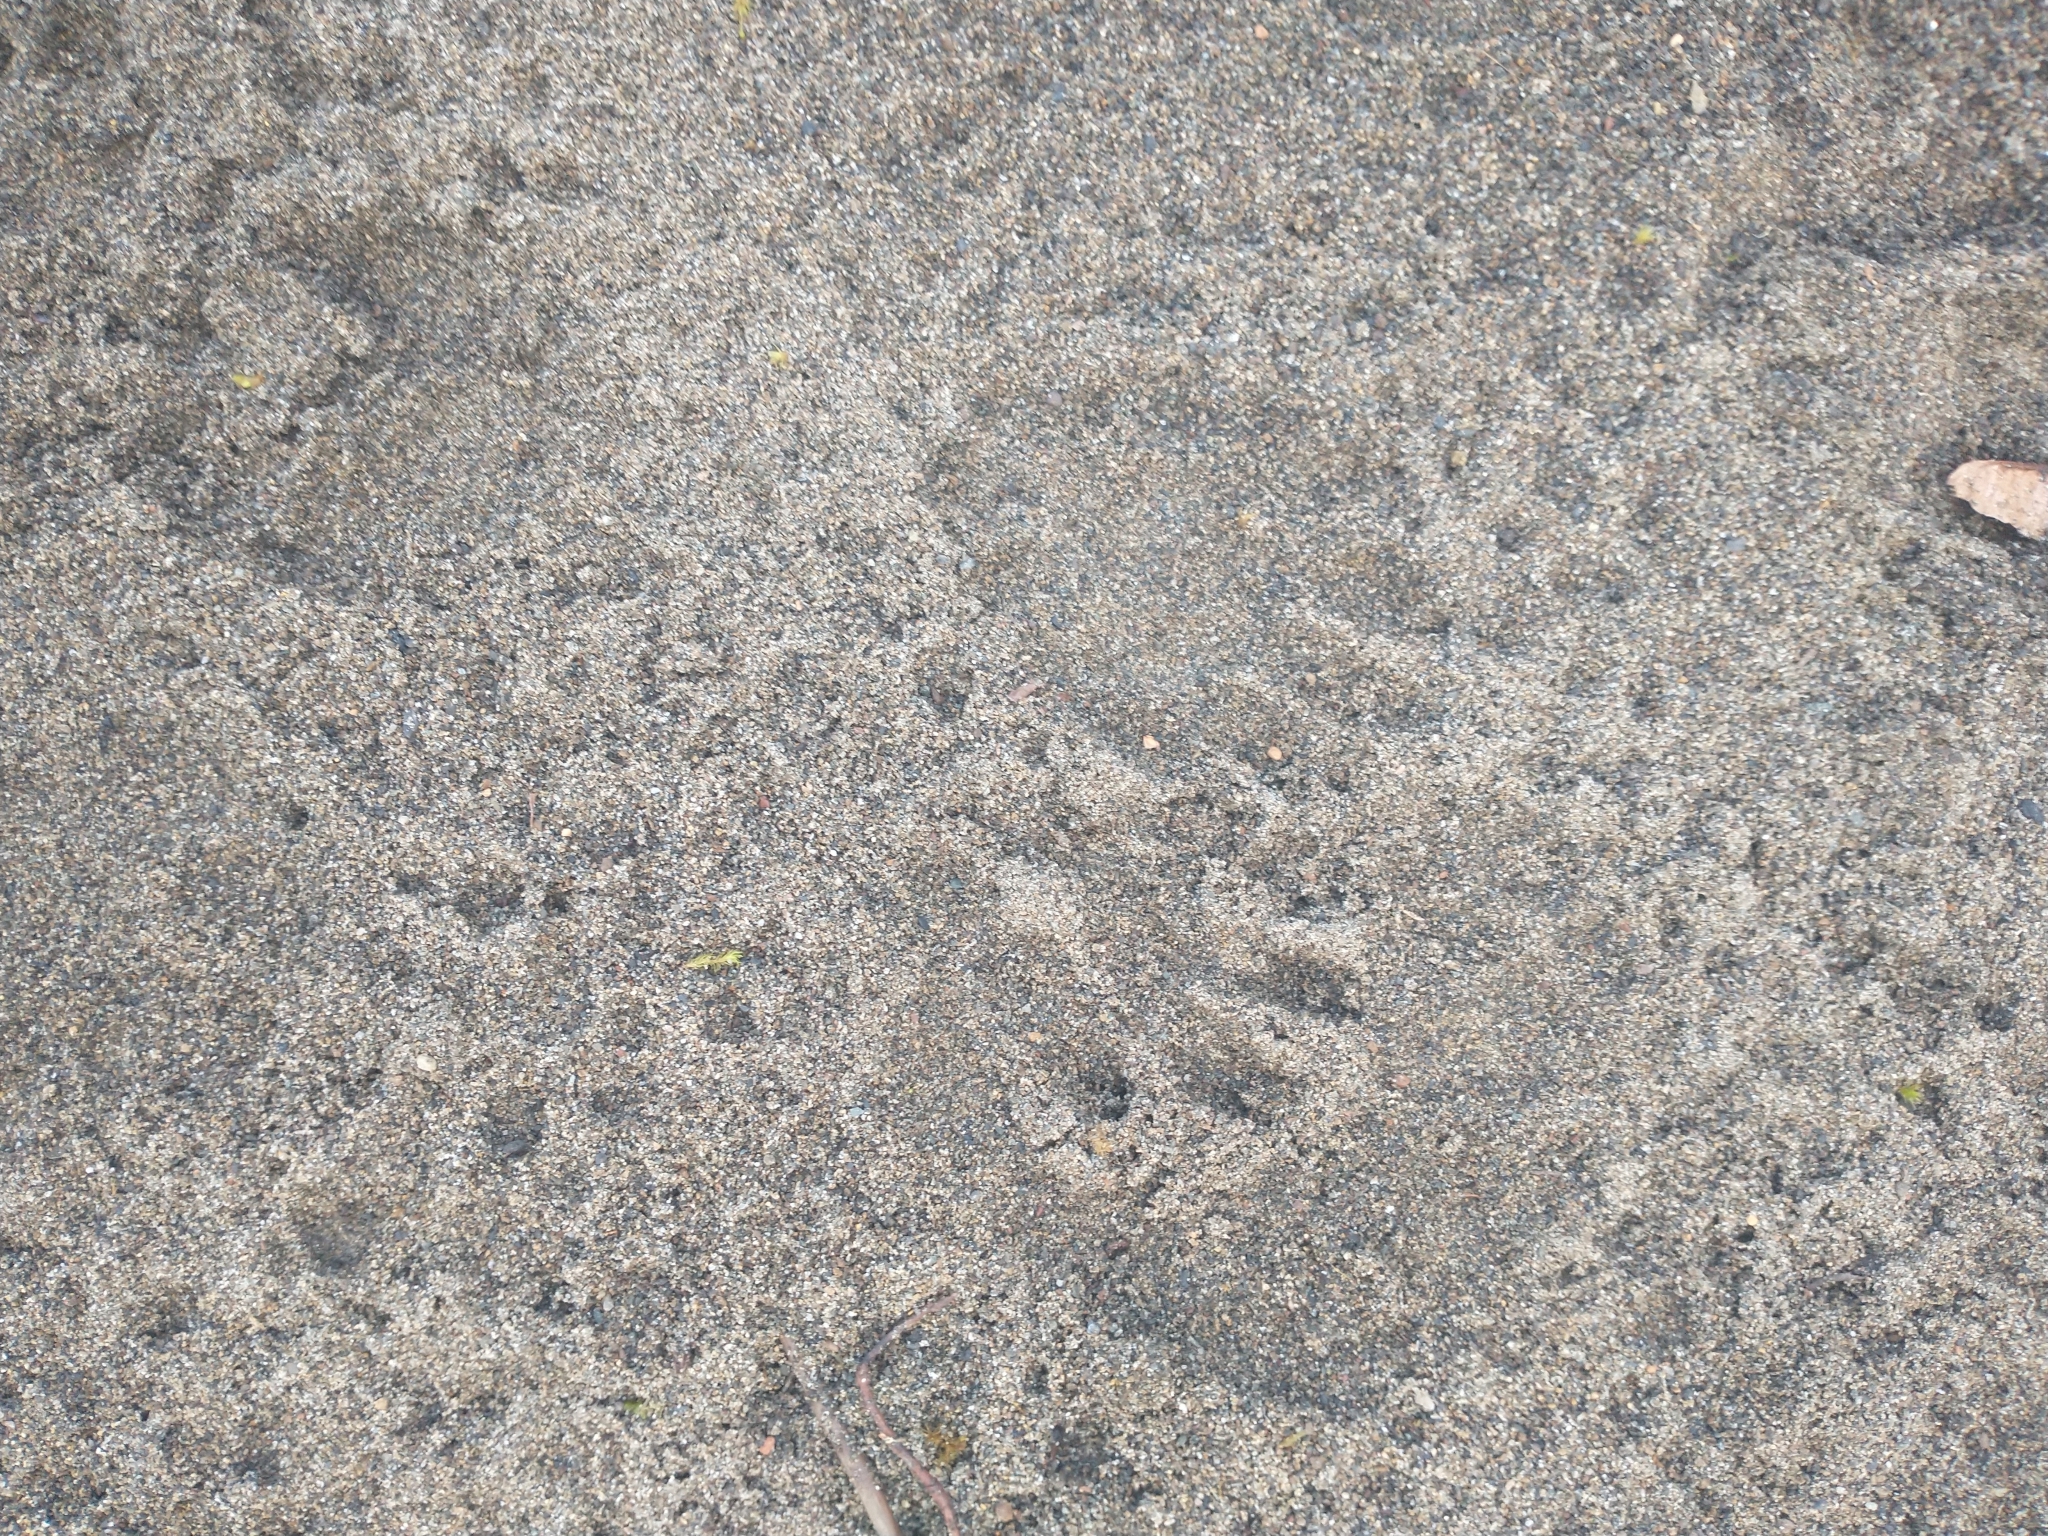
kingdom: Animalia
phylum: Chordata
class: Mammalia
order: Carnivora
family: Procyonidae
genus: Procyon
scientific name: Procyon lotor
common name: Raccoon
